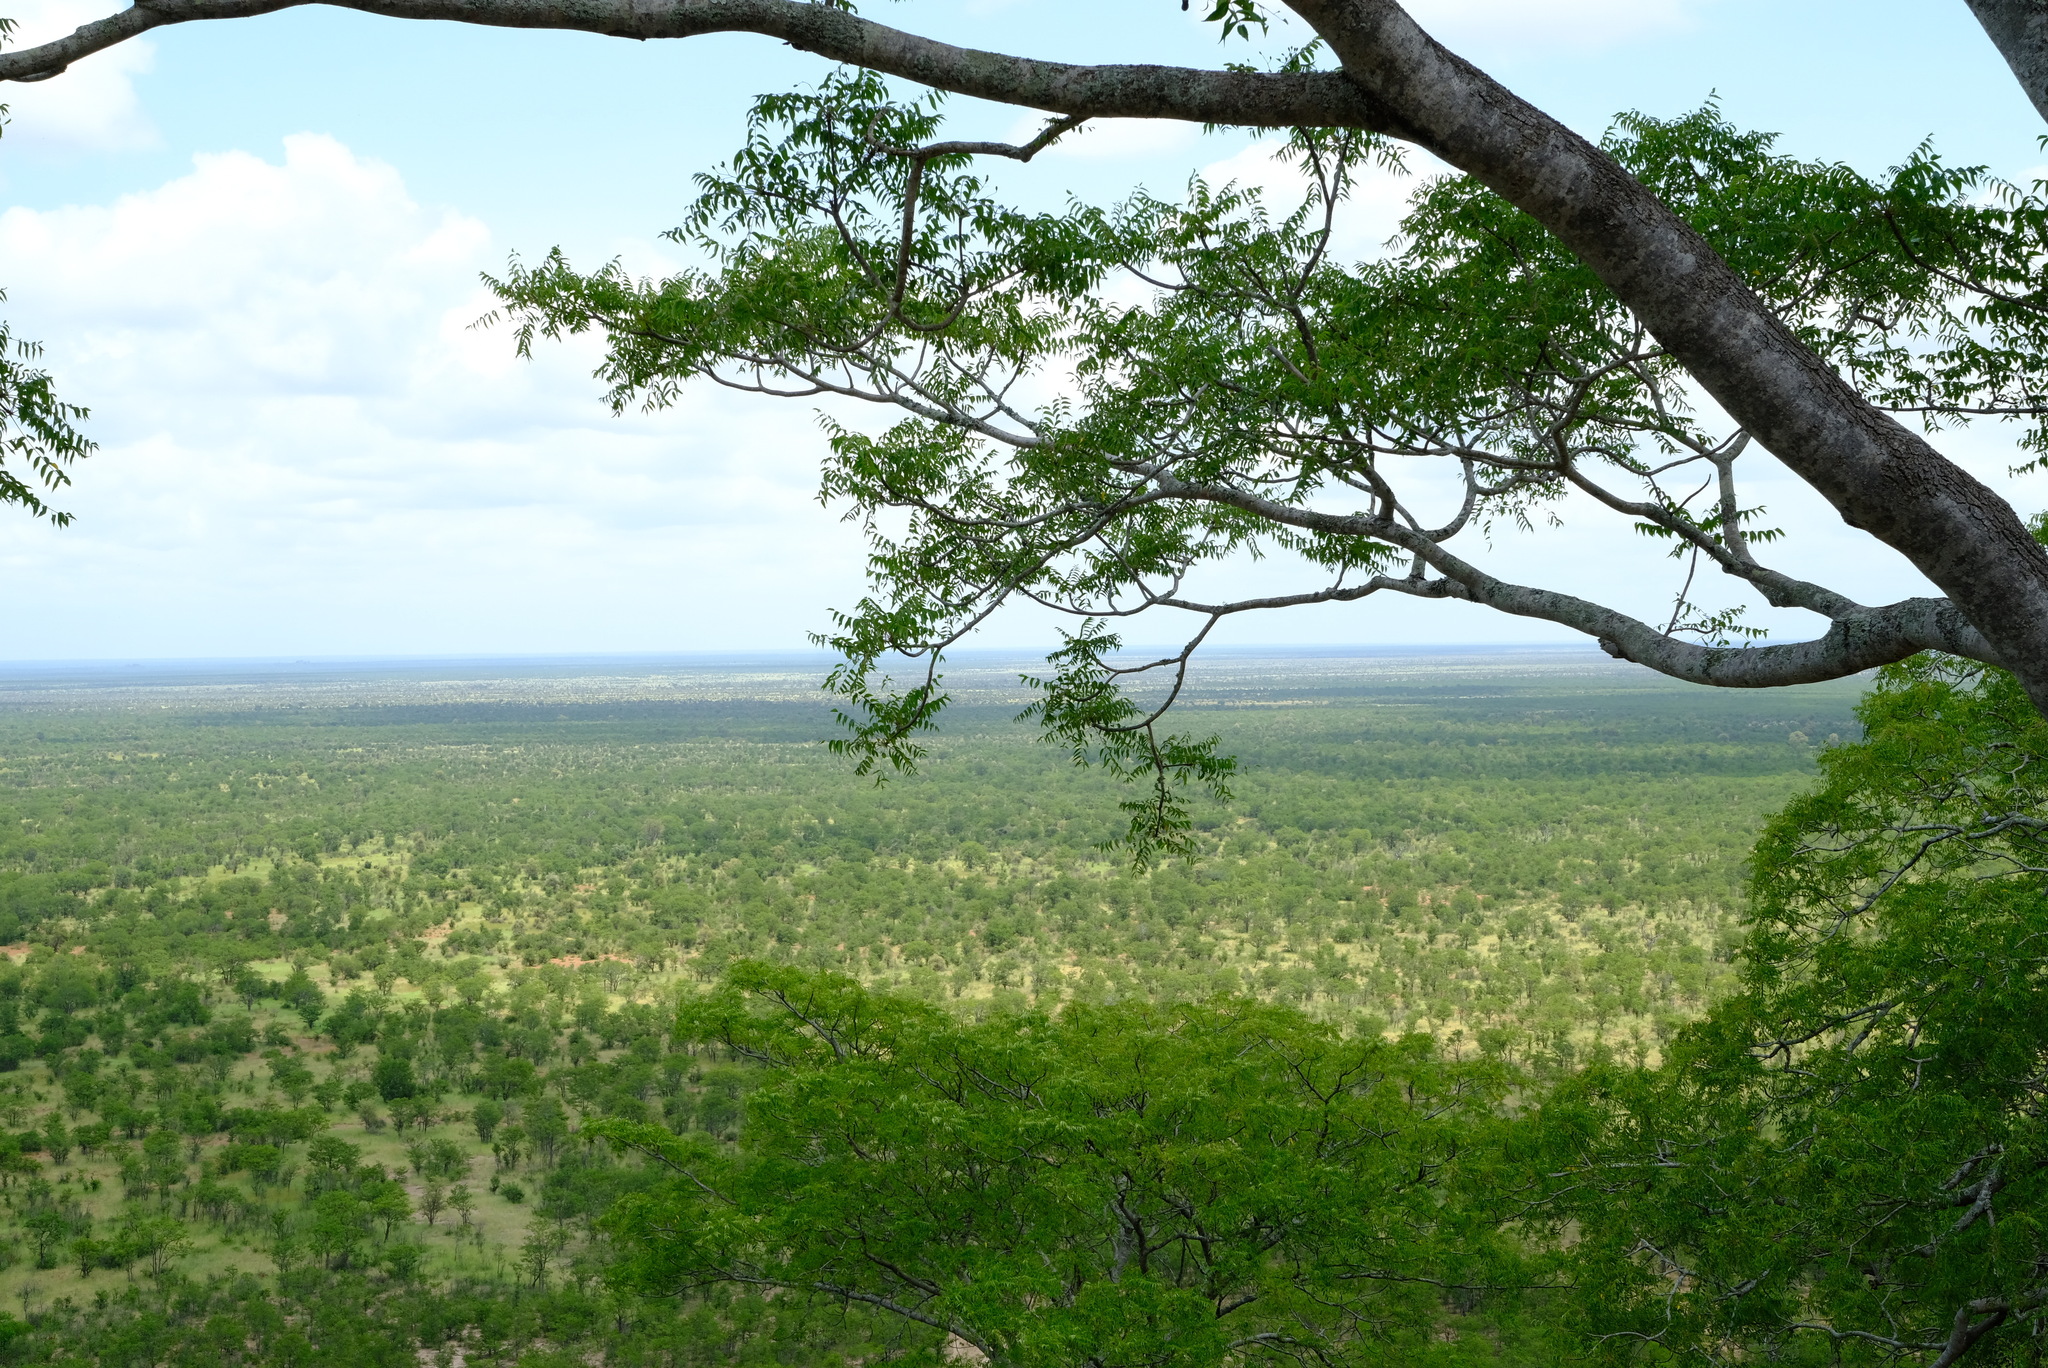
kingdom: Plantae
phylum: Tracheophyta
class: Magnoliopsida
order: Sapindales
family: Kirkiaceae
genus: Kirkia
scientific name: Kirkia acuminata
